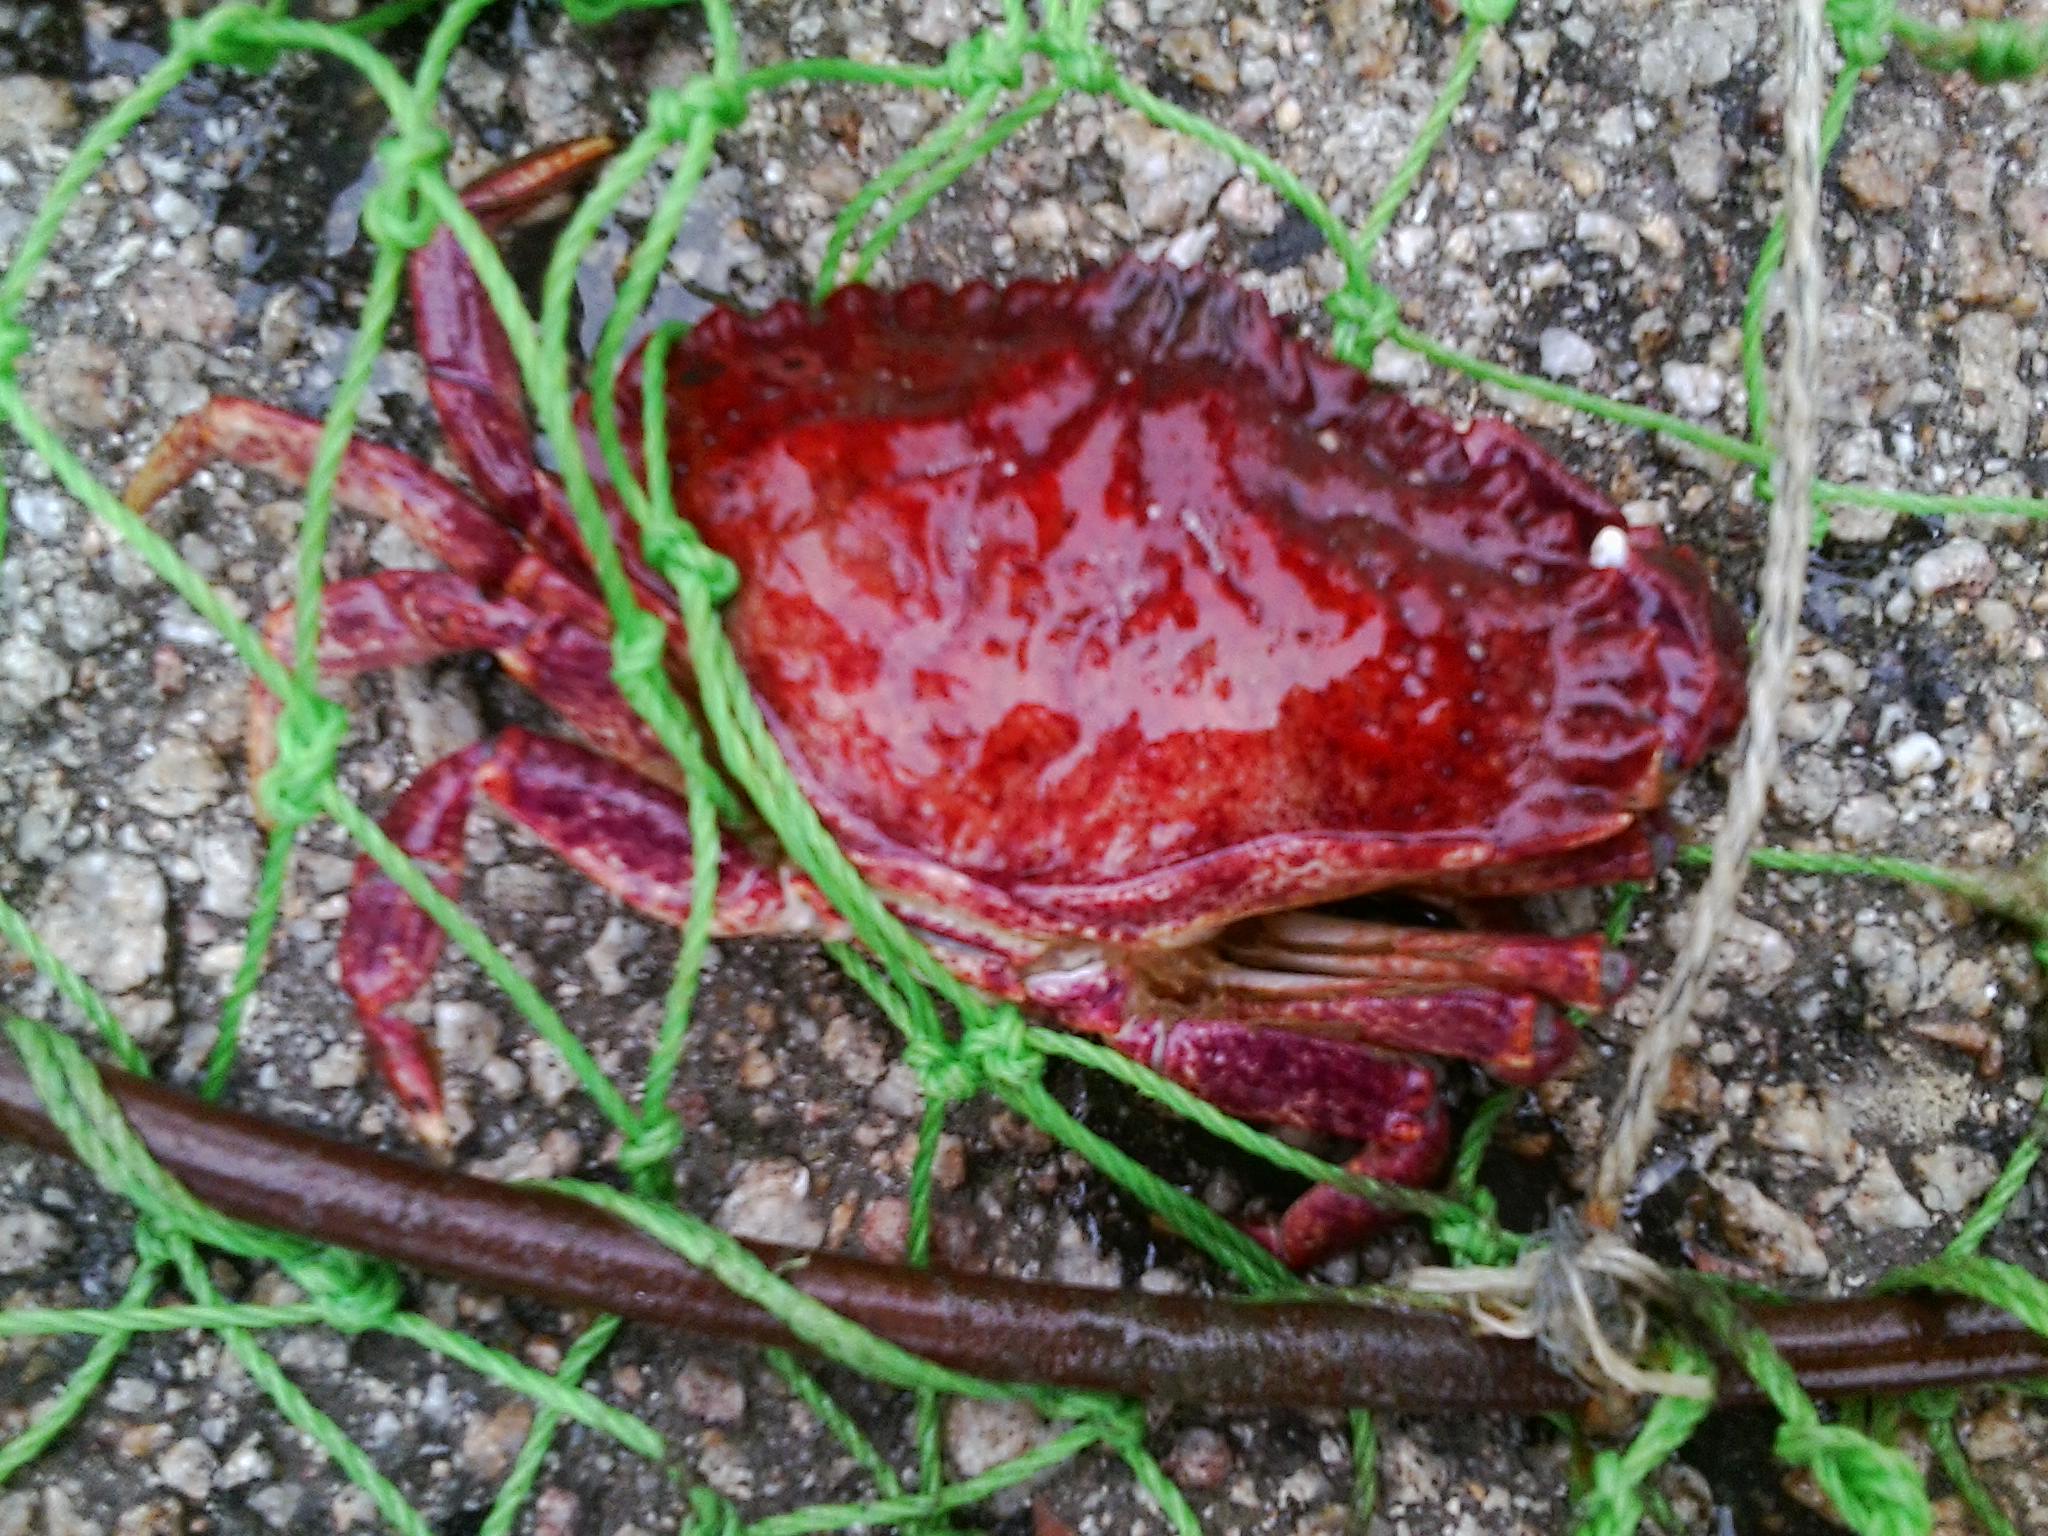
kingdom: Animalia
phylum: Arthropoda
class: Malacostraca
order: Decapoda
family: Cancridae
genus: Cancer
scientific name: Cancer productus
